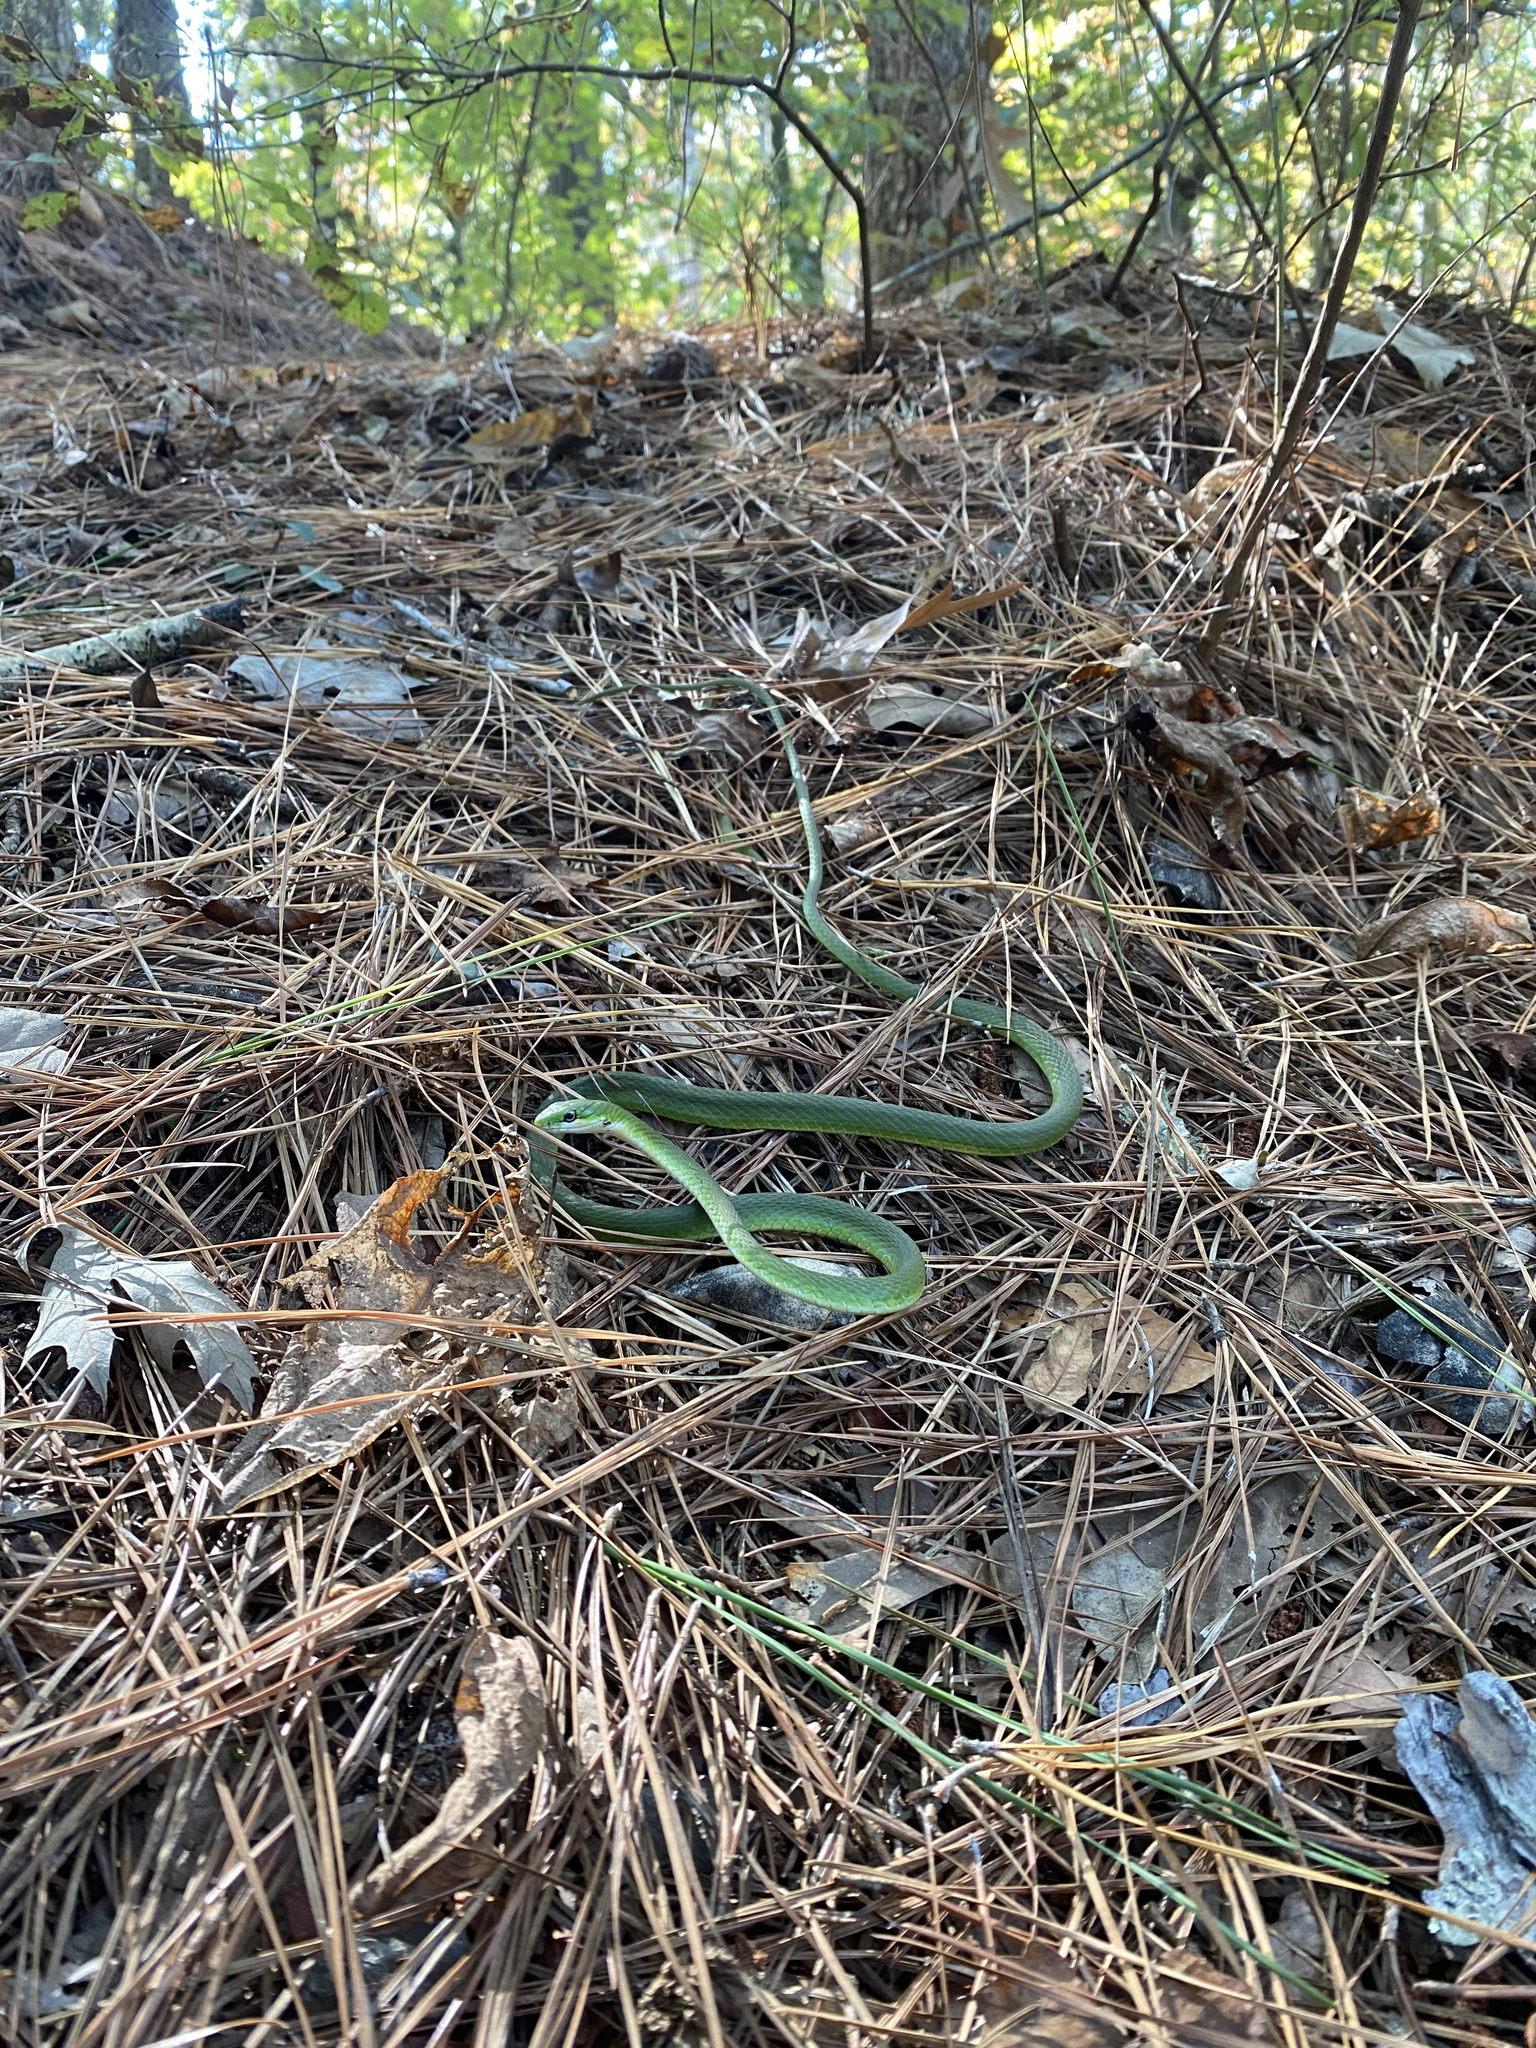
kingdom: Animalia
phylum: Chordata
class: Squamata
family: Colubridae
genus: Opheodrys
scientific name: Opheodrys aestivus
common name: Rough greensnake
